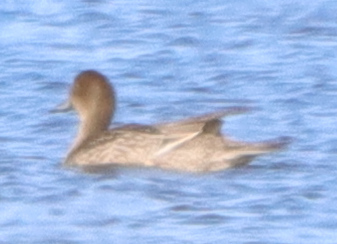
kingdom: Animalia
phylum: Chordata
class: Aves
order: Anseriformes
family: Anatidae
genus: Anas
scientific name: Anas acuta
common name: Northern pintail
